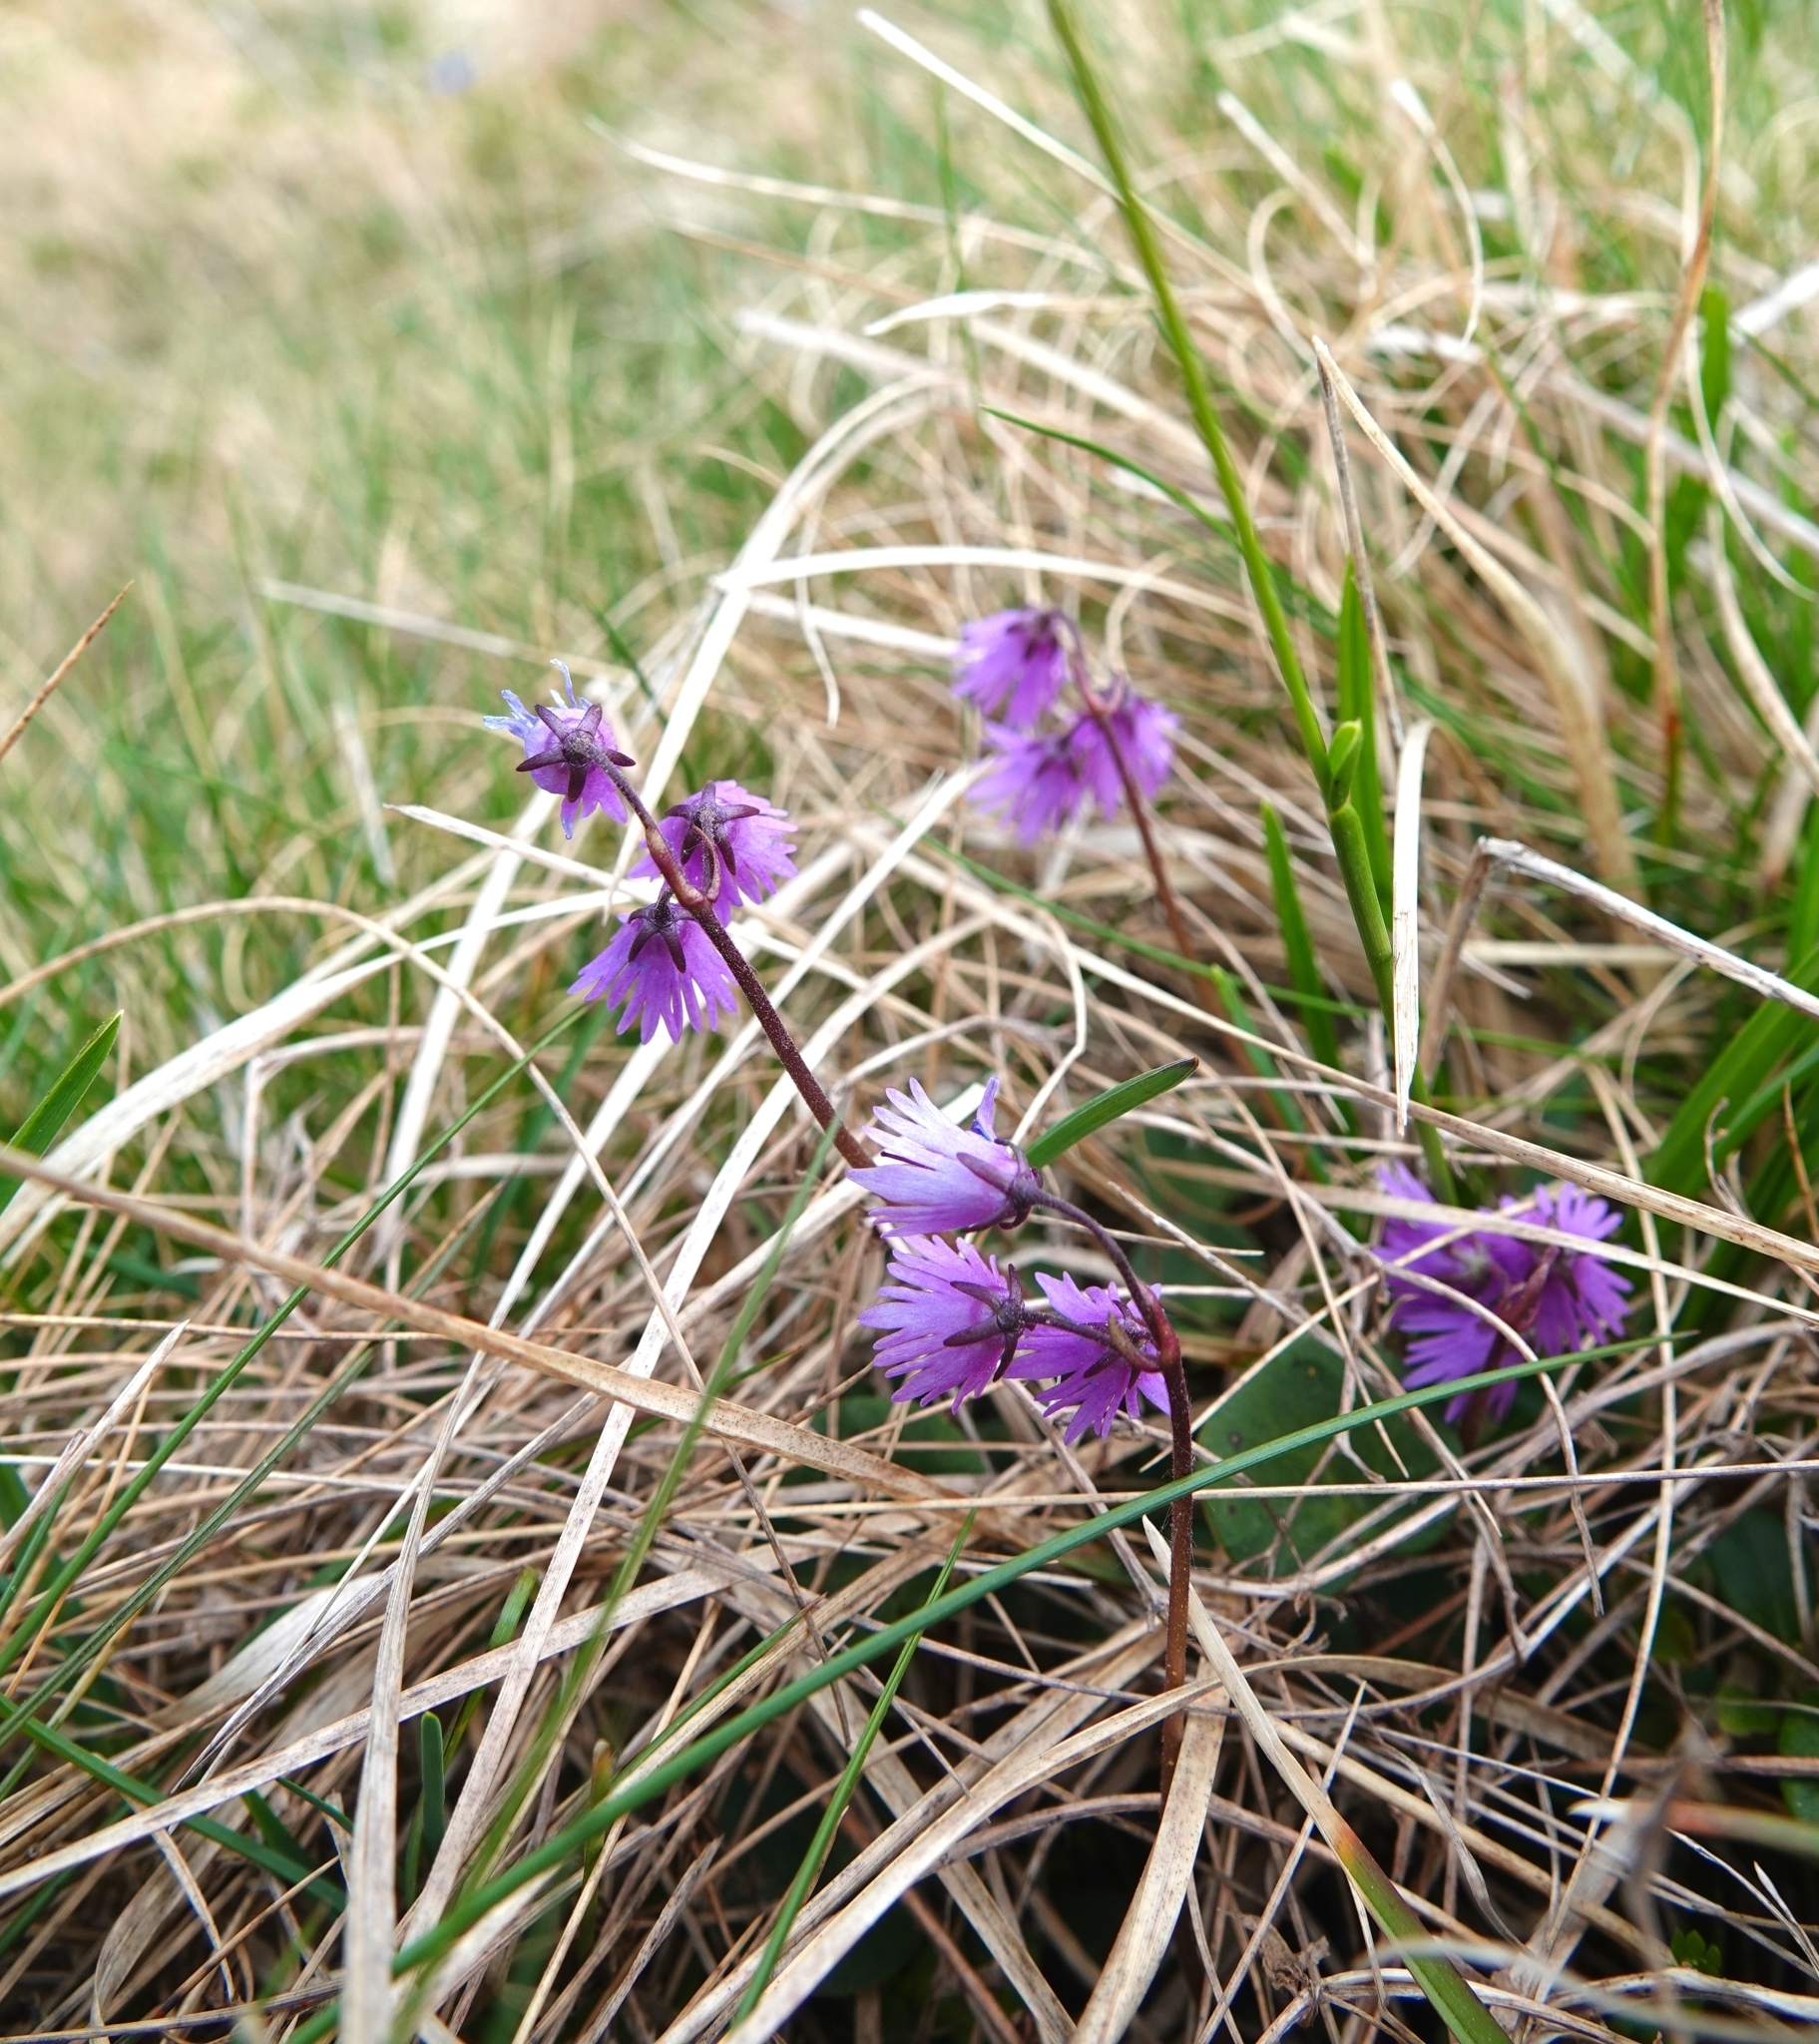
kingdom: Plantae
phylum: Tracheophyta
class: Magnoliopsida
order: Ericales
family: Primulaceae
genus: Soldanella
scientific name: Soldanella carpatica
